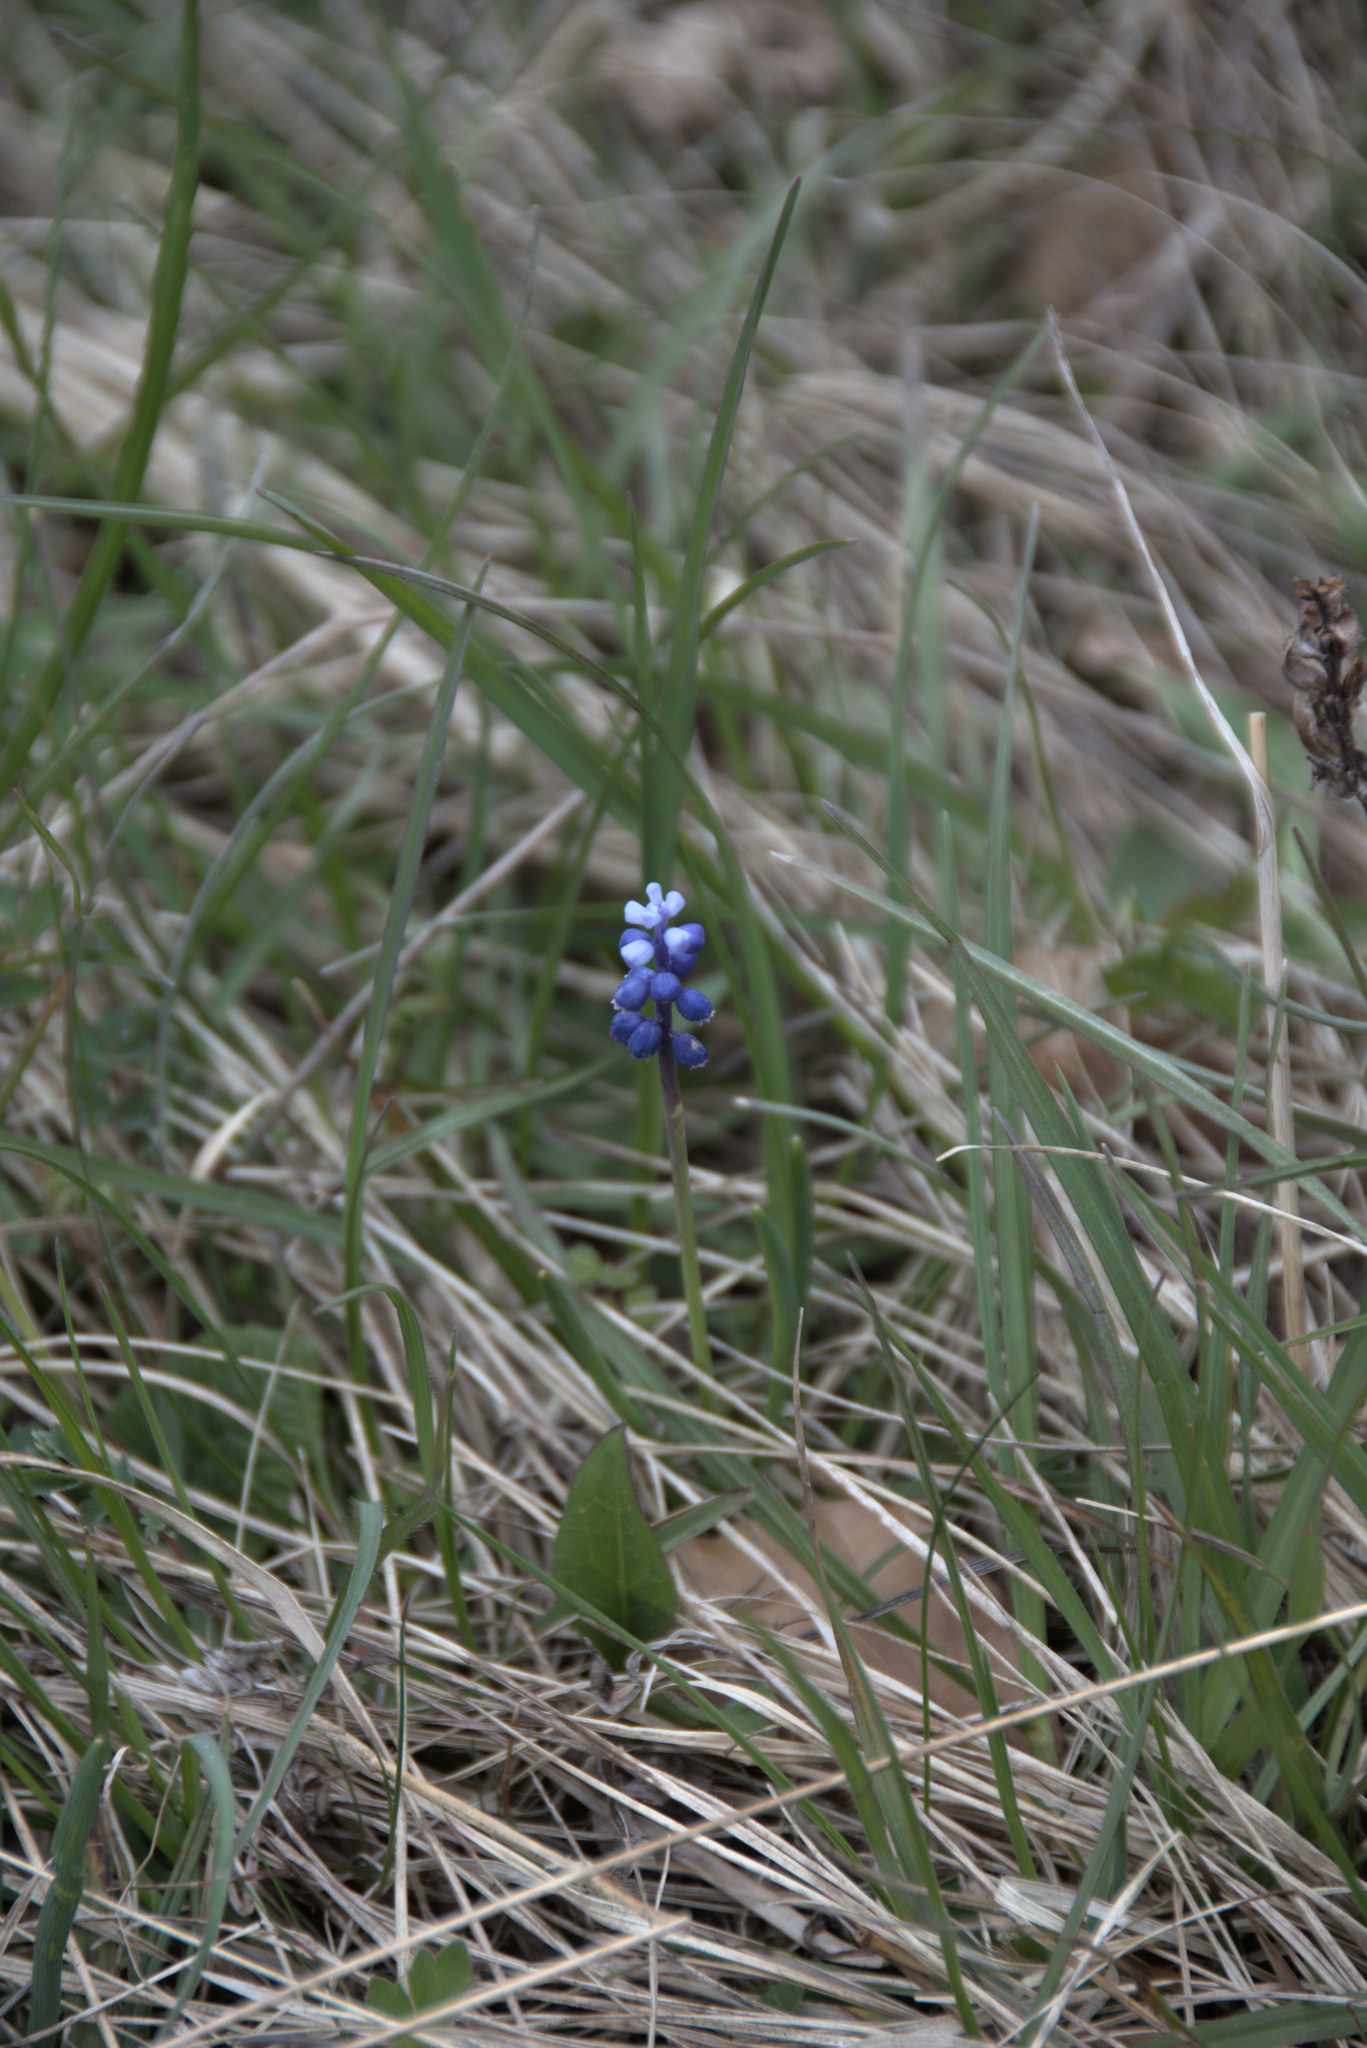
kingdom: Plantae
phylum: Tracheophyta
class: Liliopsida
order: Asparagales
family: Asparagaceae
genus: Muscari
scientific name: Muscari botryoides
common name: Compact grape-hyacinth
